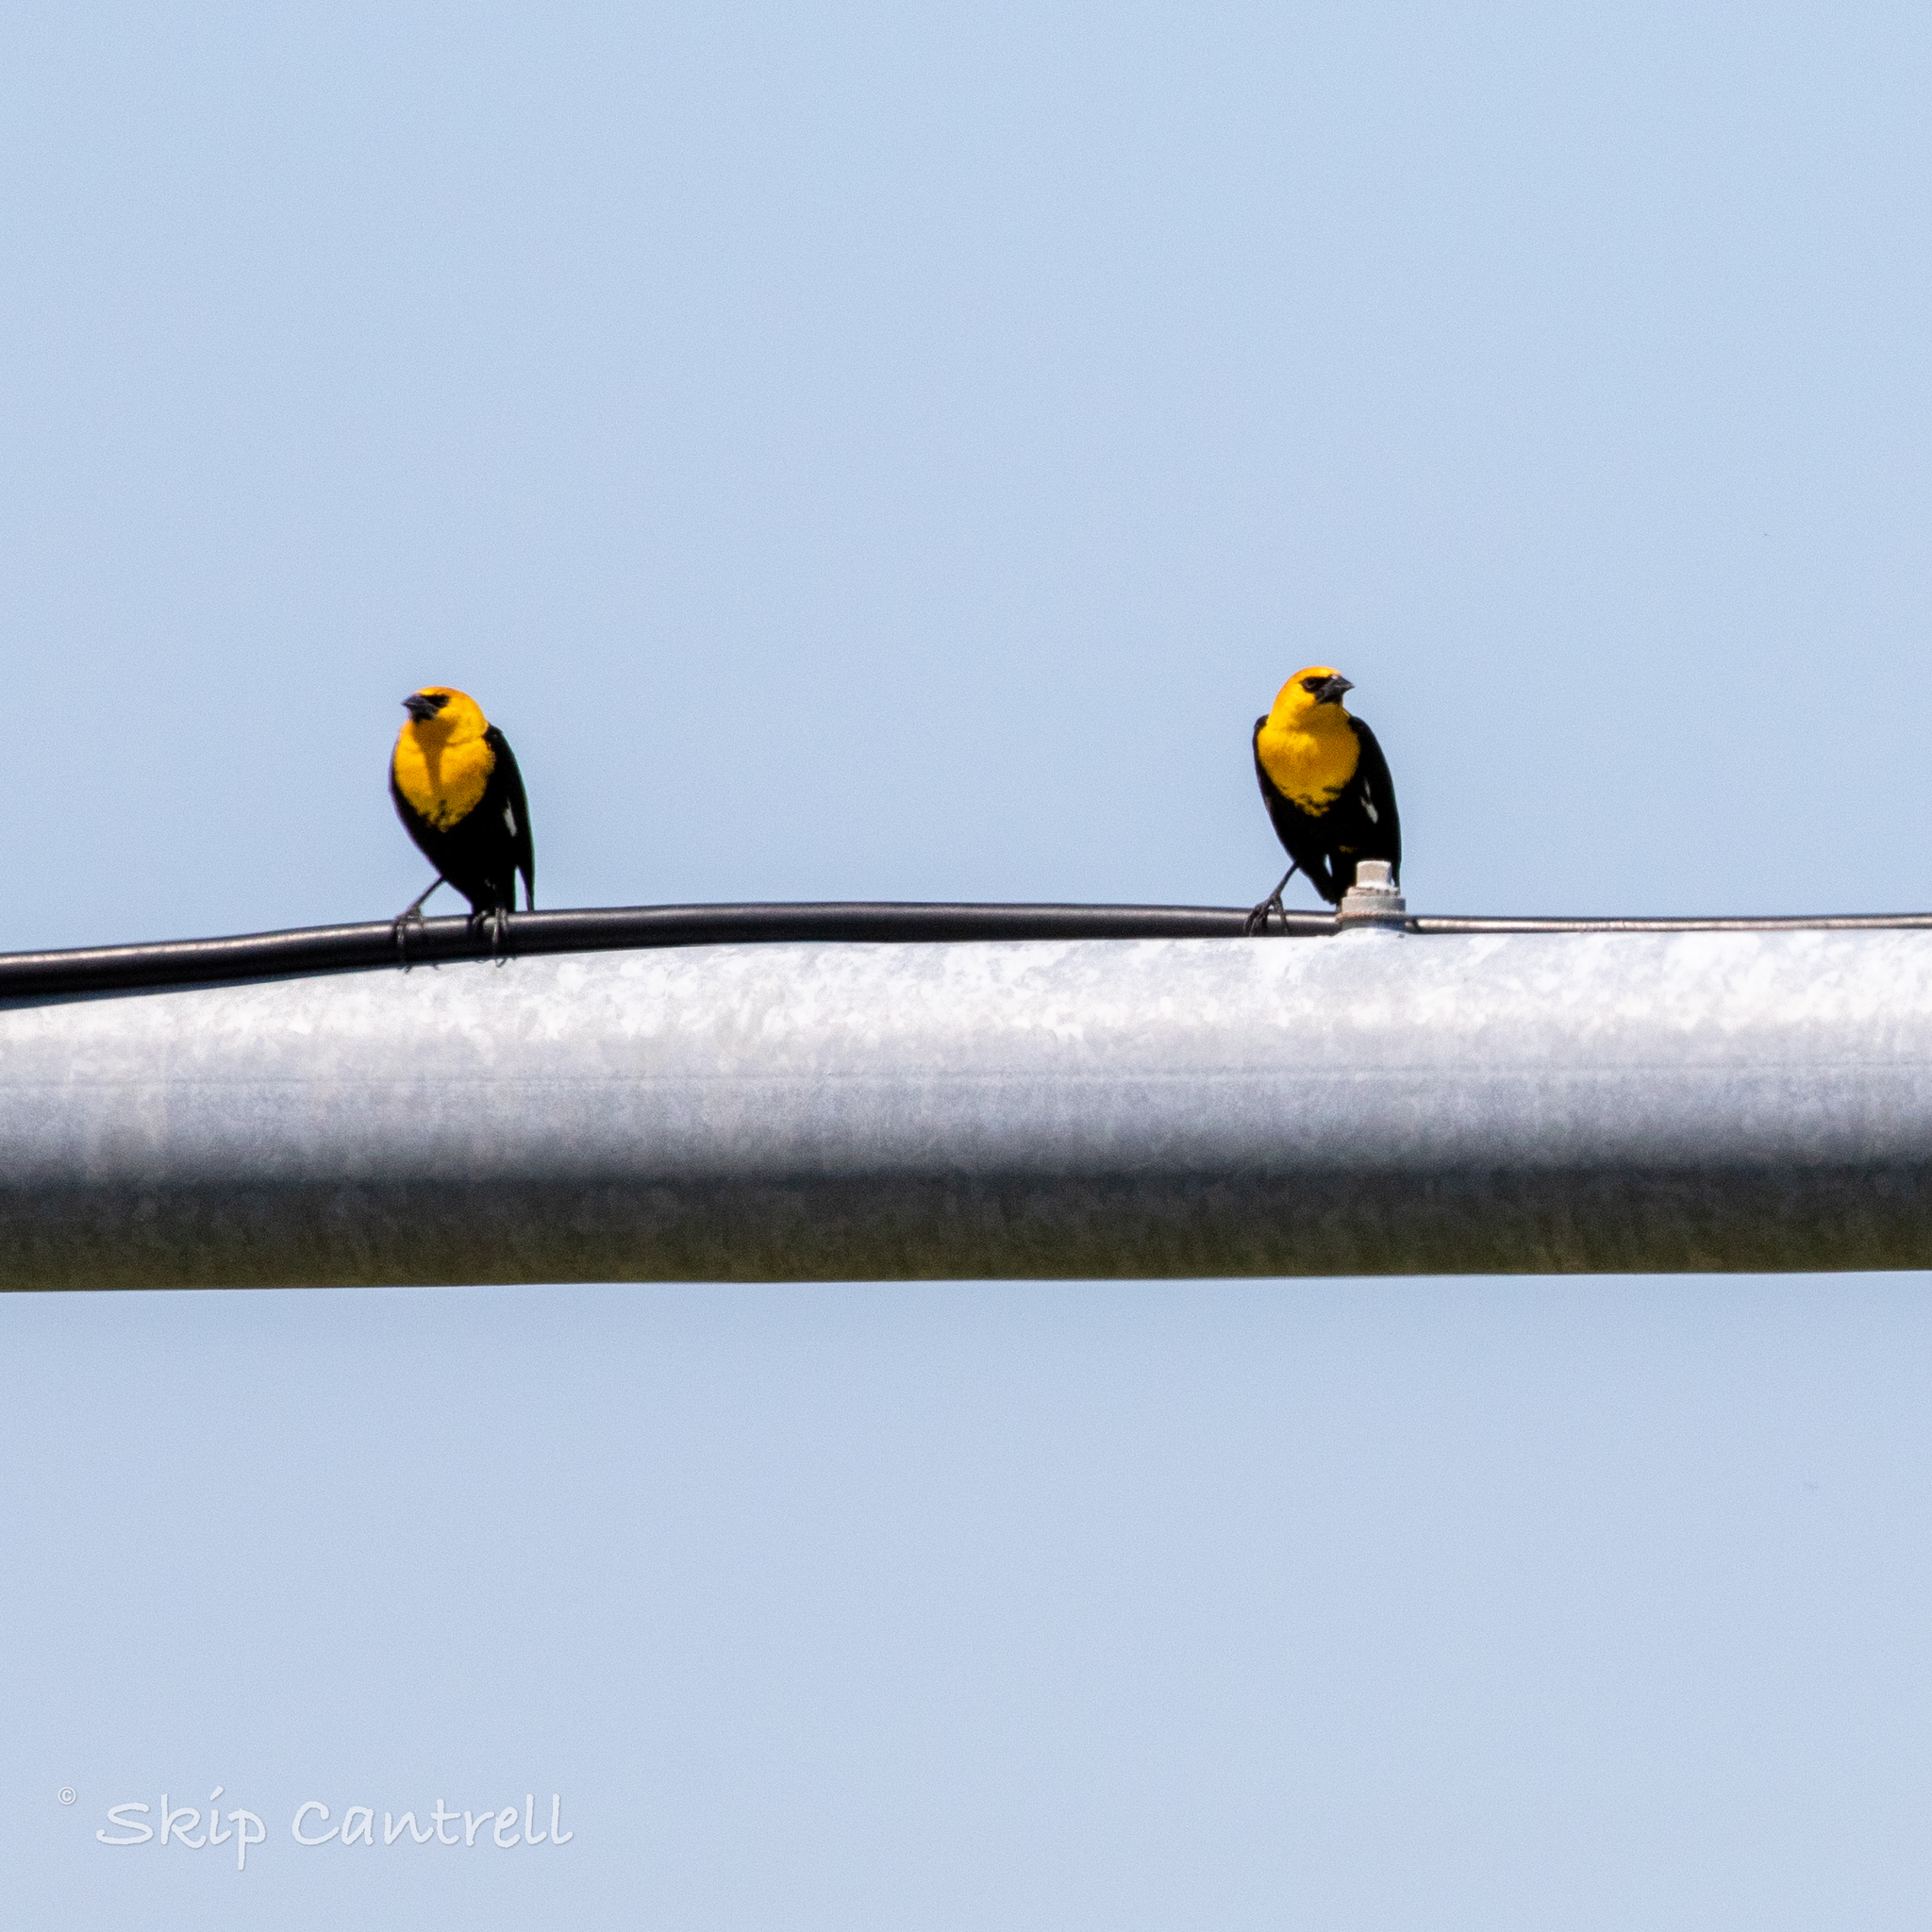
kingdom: Animalia
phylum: Chordata
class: Aves
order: Passeriformes
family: Icteridae
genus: Xanthocephalus
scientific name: Xanthocephalus xanthocephalus
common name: Yellow-headed blackbird
